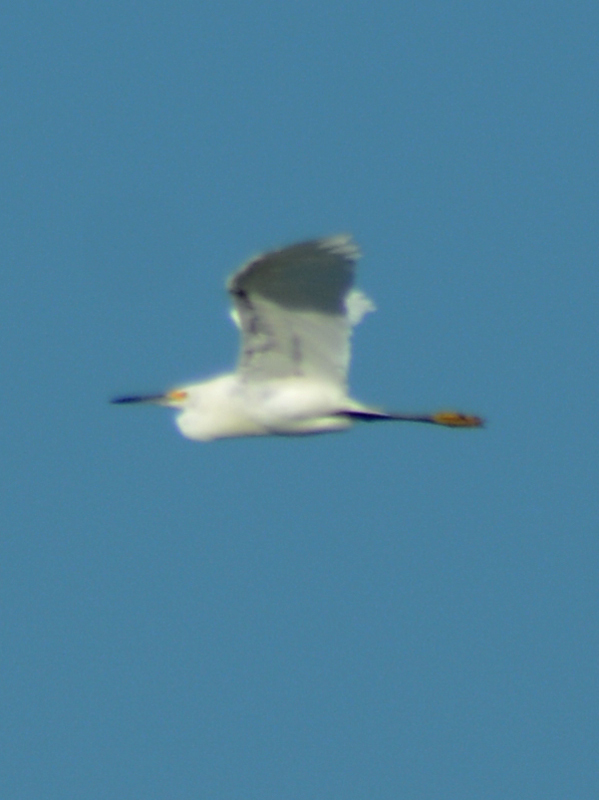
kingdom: Animalia
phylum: Chordata
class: Aves
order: Pelecaniformes
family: Ardeidae
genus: Egretta
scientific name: Egretta thula
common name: Snowy egret
